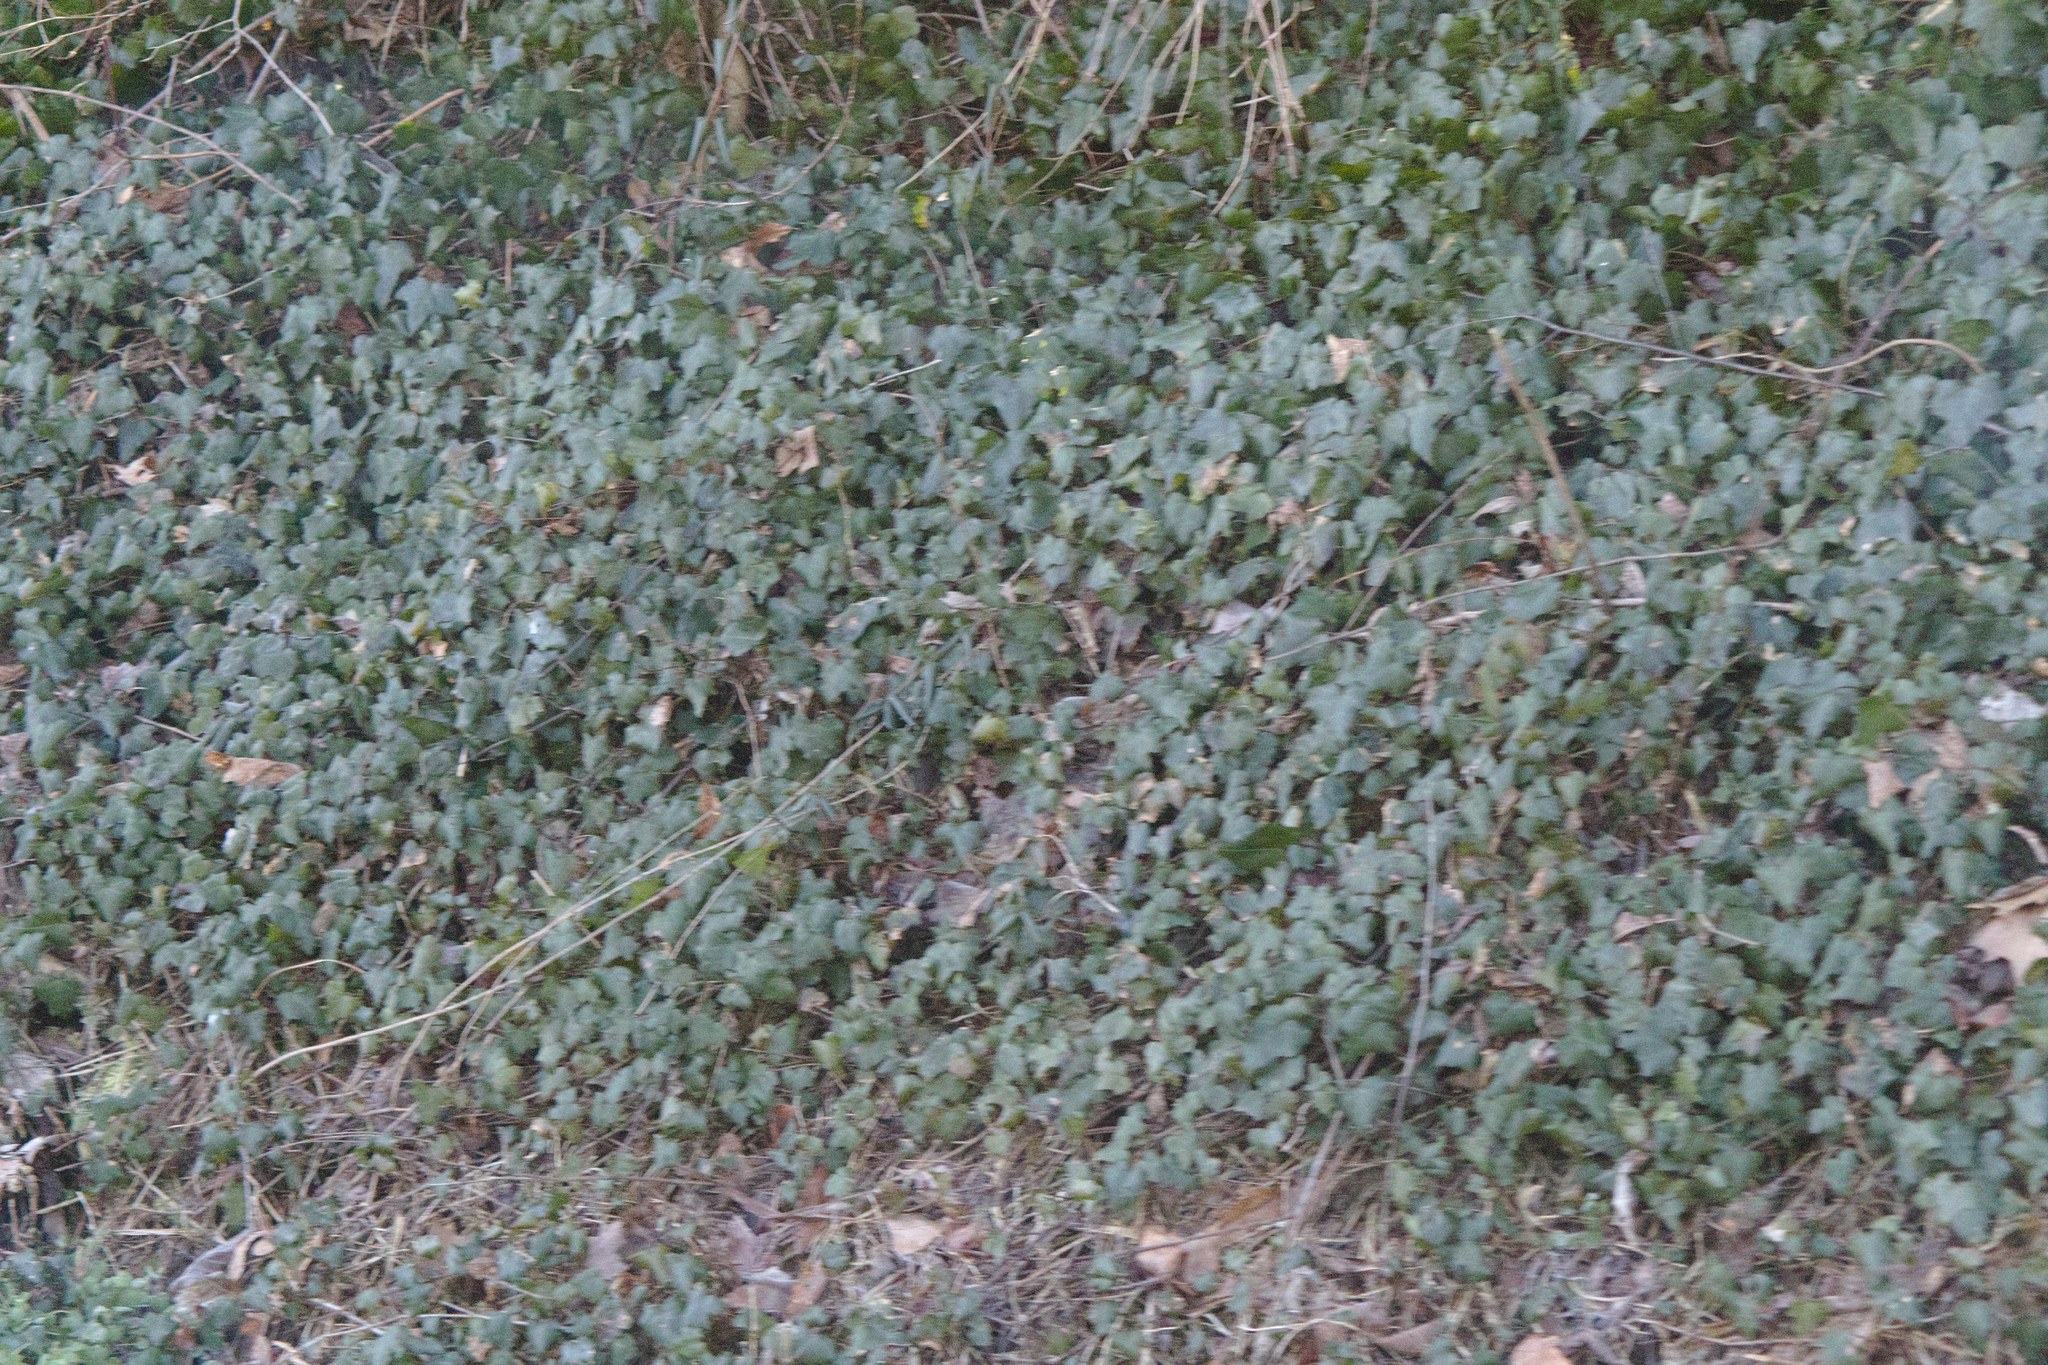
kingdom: Plantae
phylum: Tracheophyta
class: Magnoliopsida
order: Apiales
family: Araliaceae
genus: Hedera
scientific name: Hedera helix
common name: Ivy
